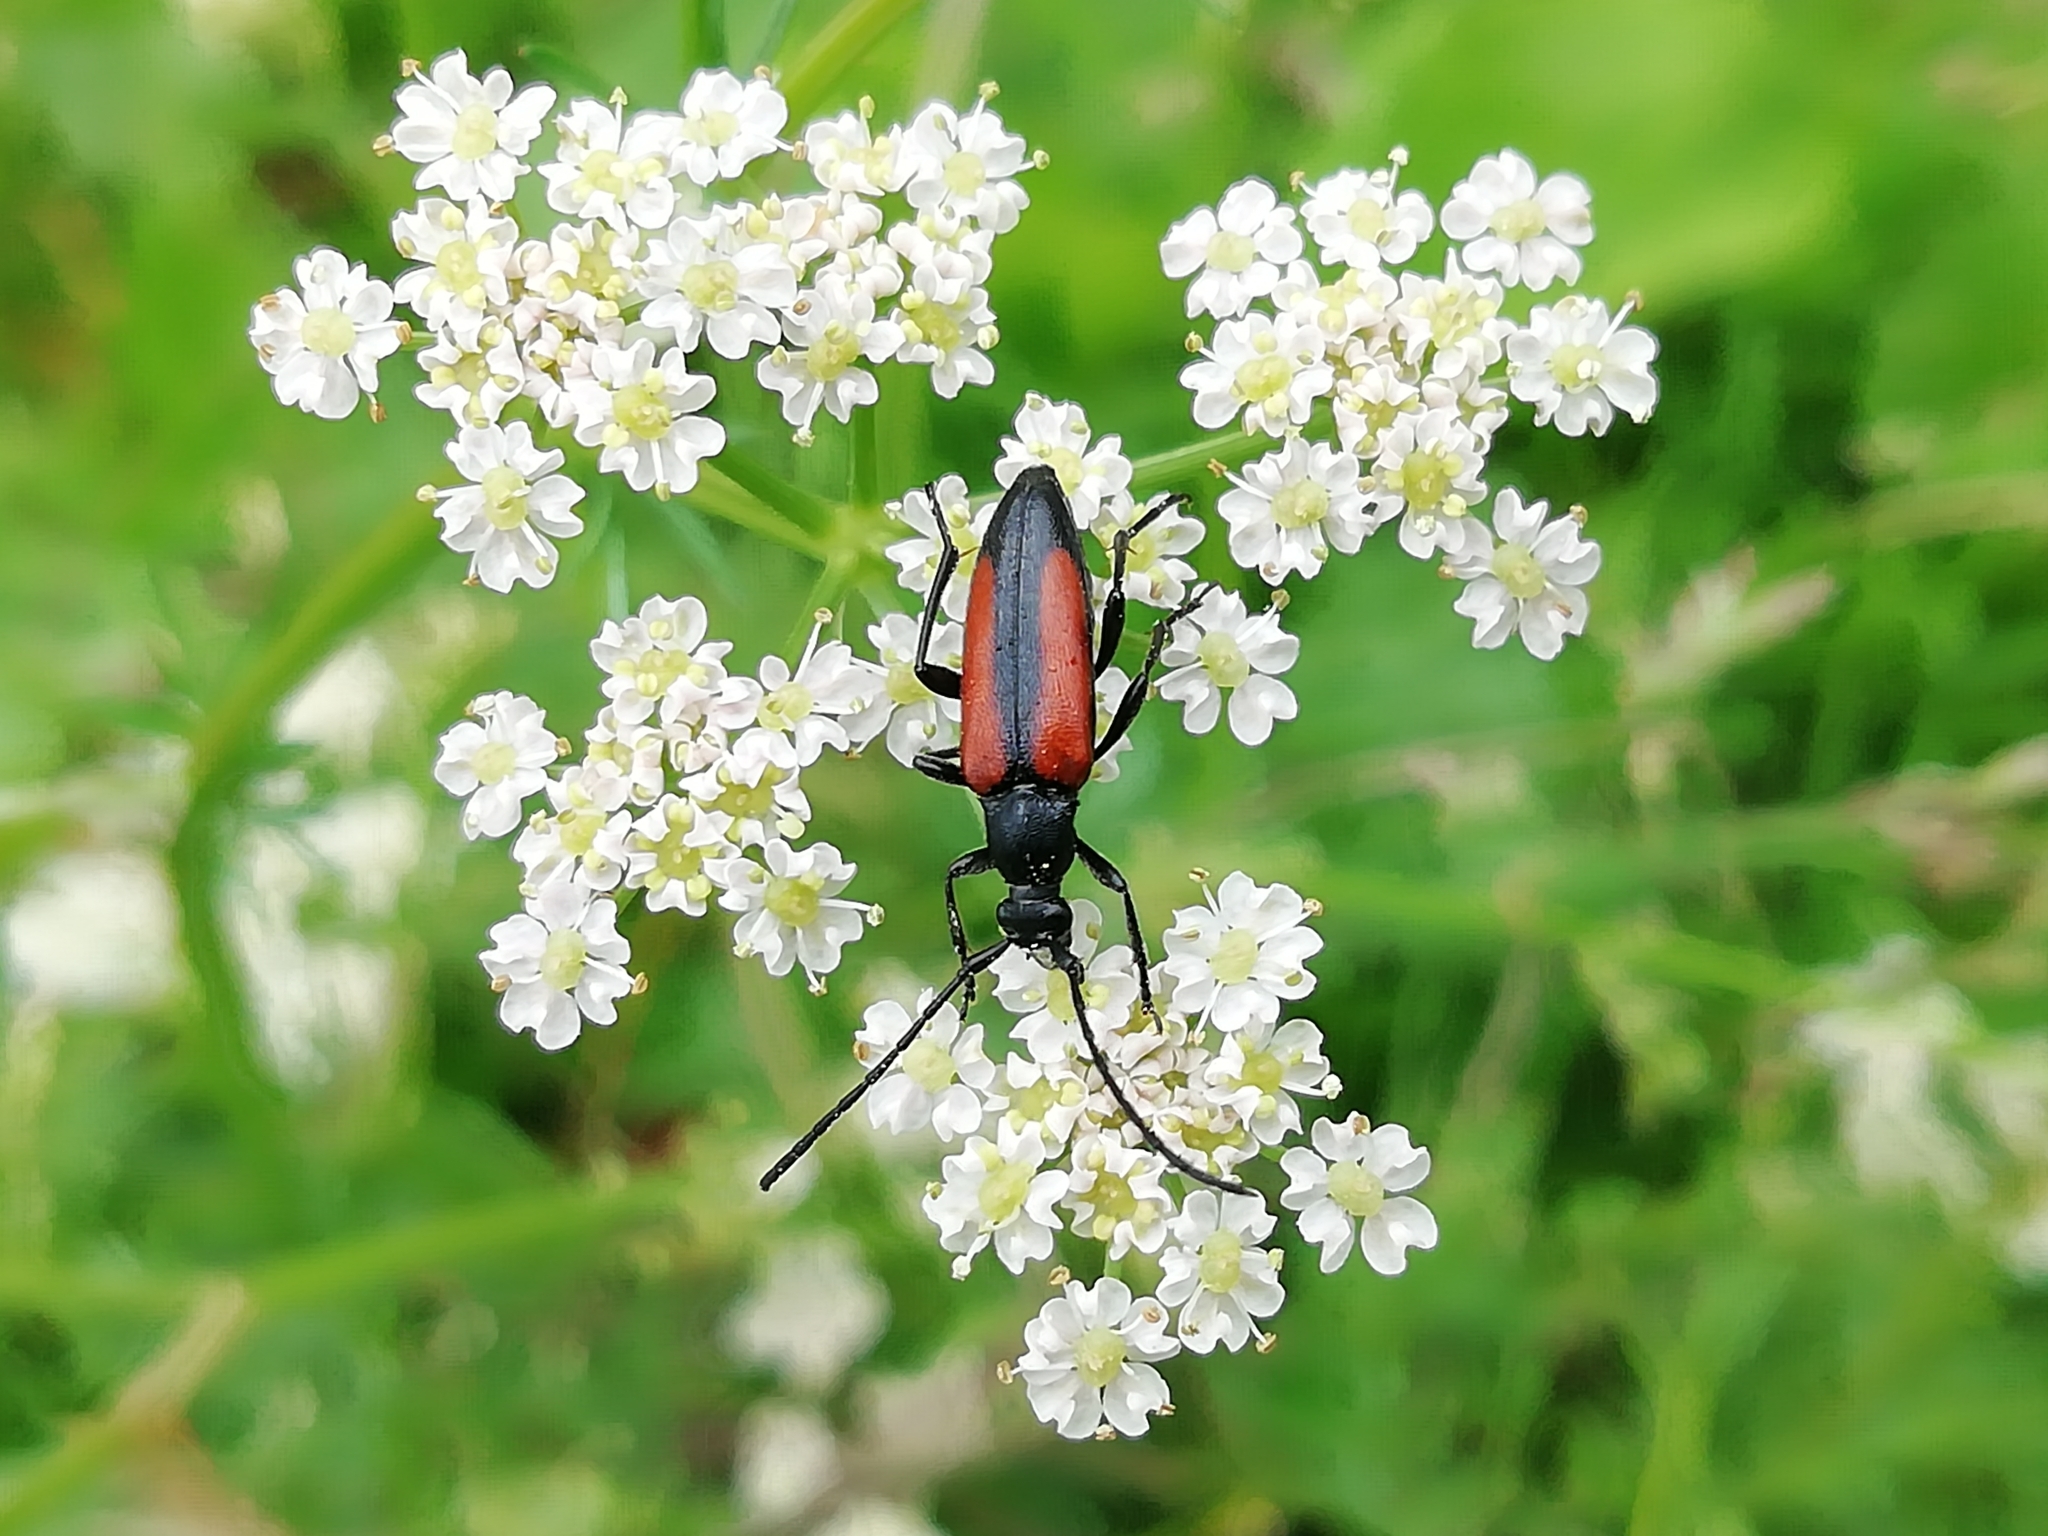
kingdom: Animalia
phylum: Arthropoda
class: Insecta
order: Coleoptera
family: Cerambycidae
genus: Stenurella
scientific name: Stenurella melanura
